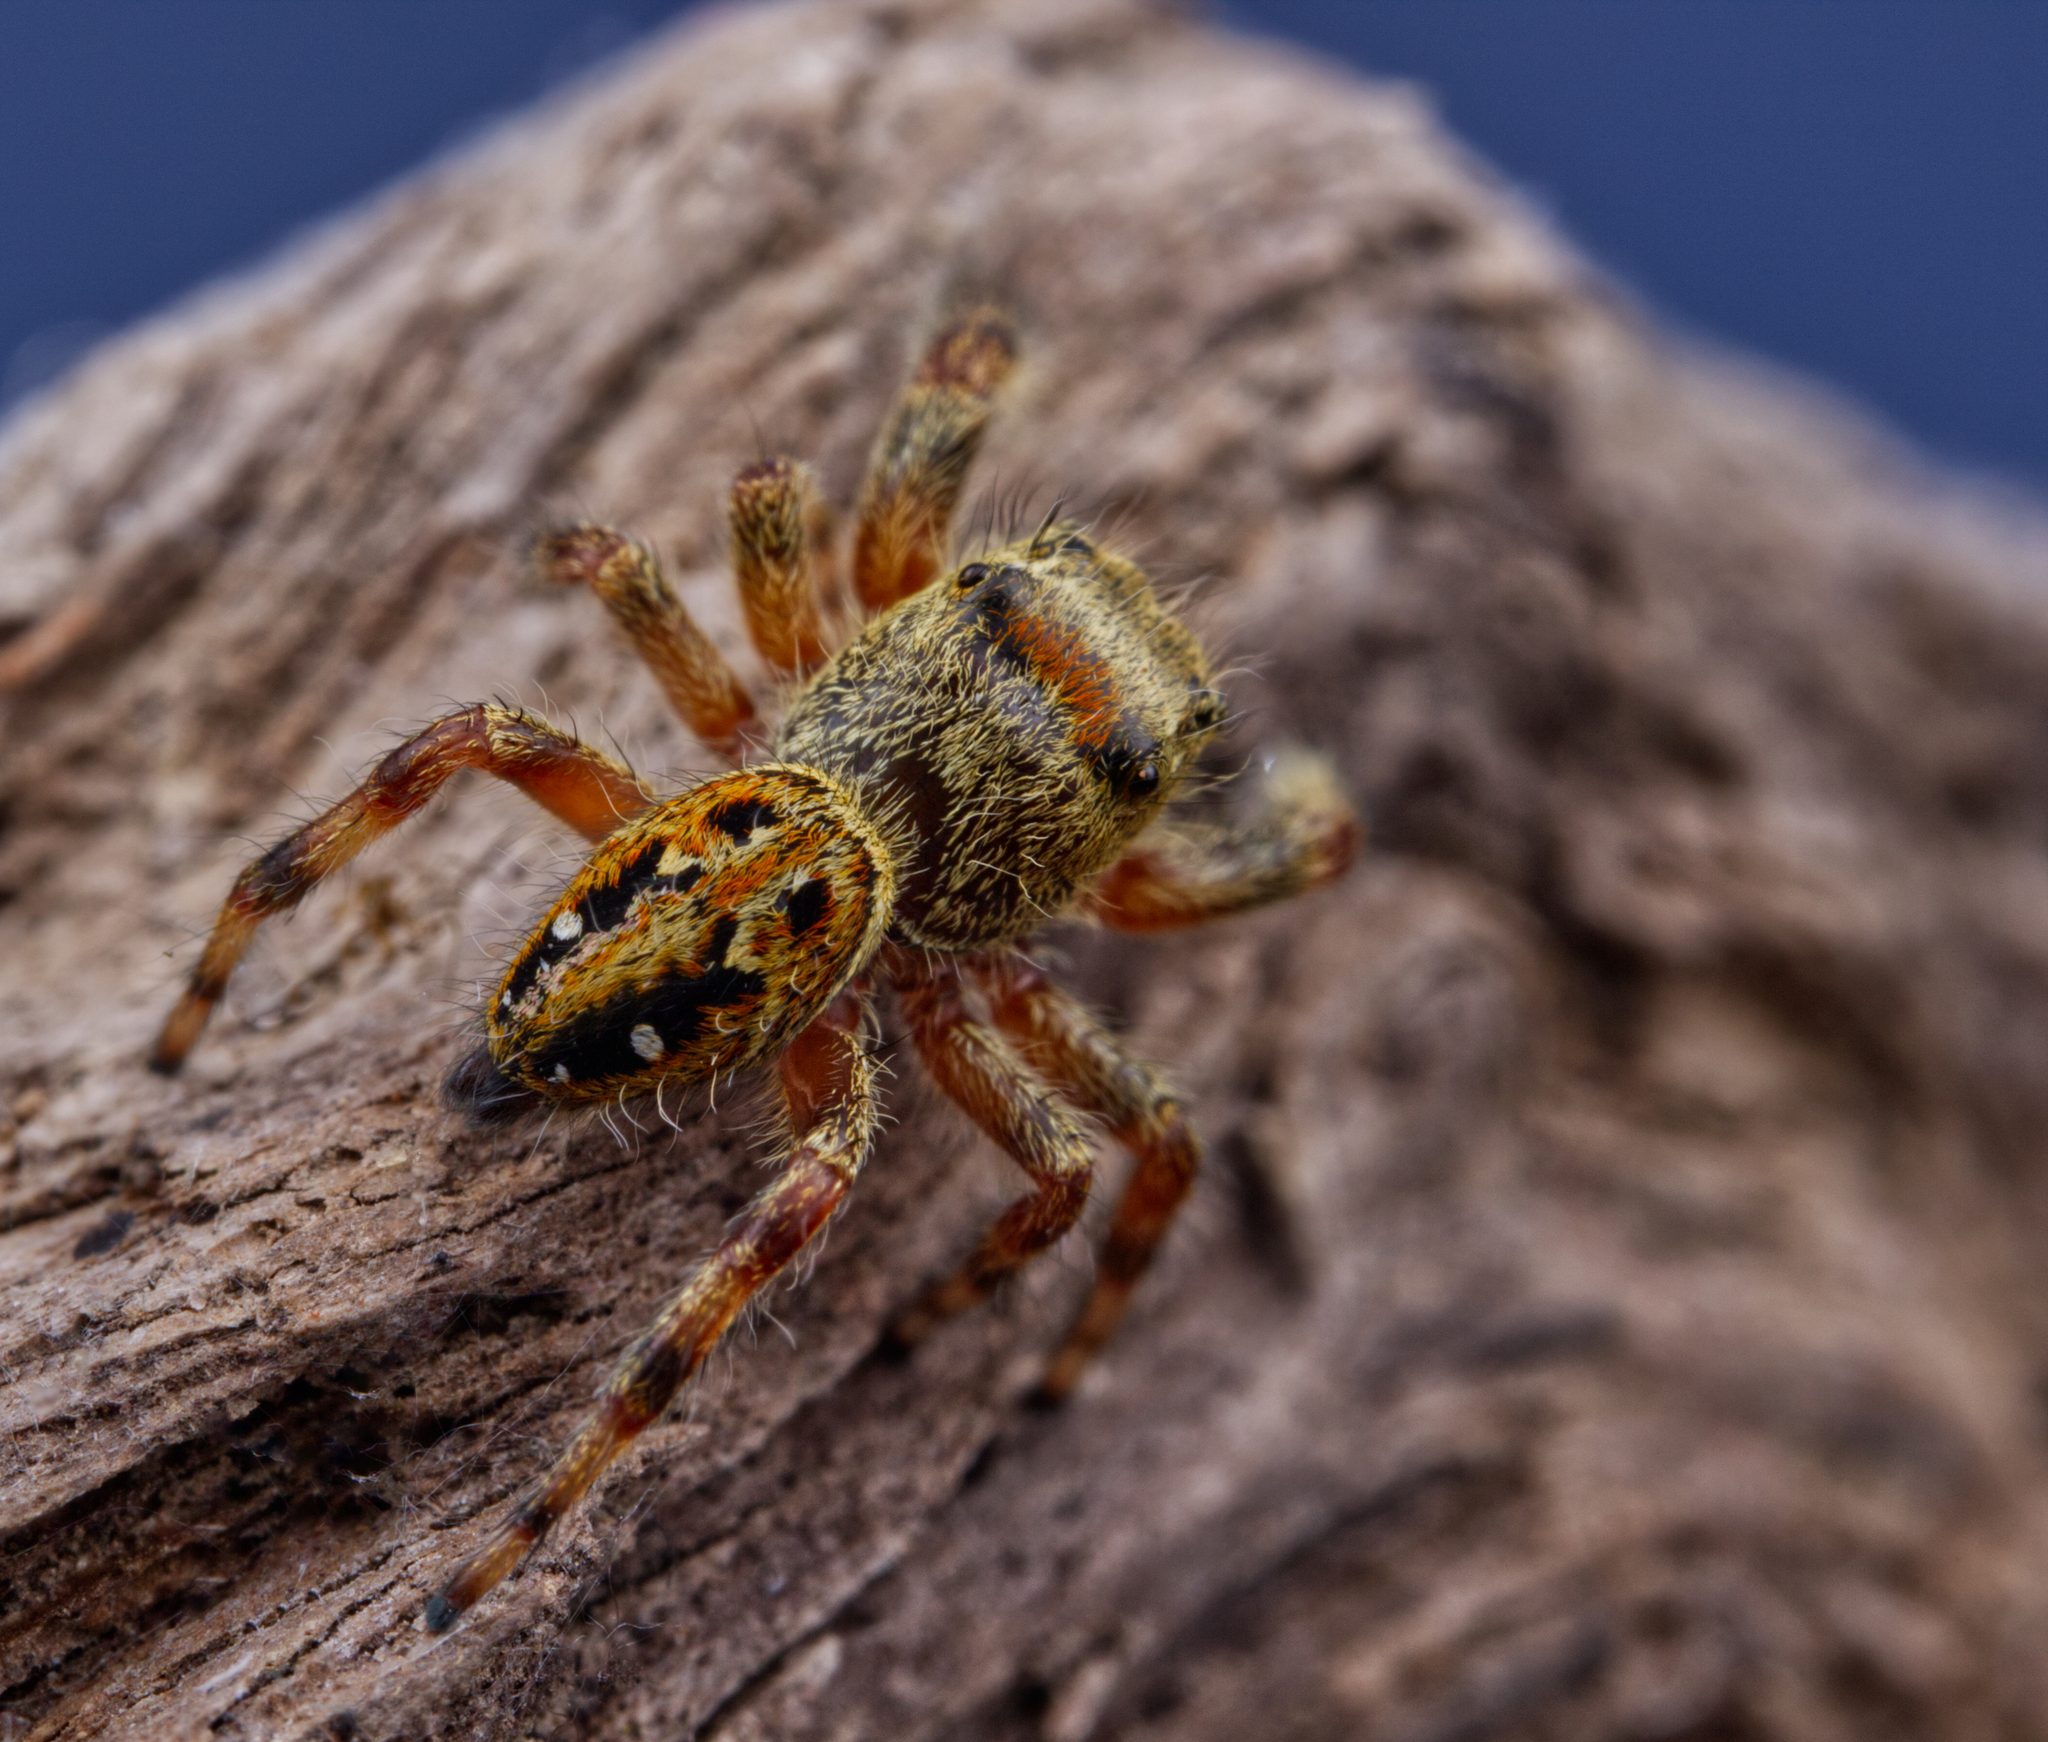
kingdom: Animalia
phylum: Arthropoda
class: Arachnida
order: Araneae
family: Salticidae
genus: Phidippus
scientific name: Phidippus clarus
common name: Brilliant jumping spider
